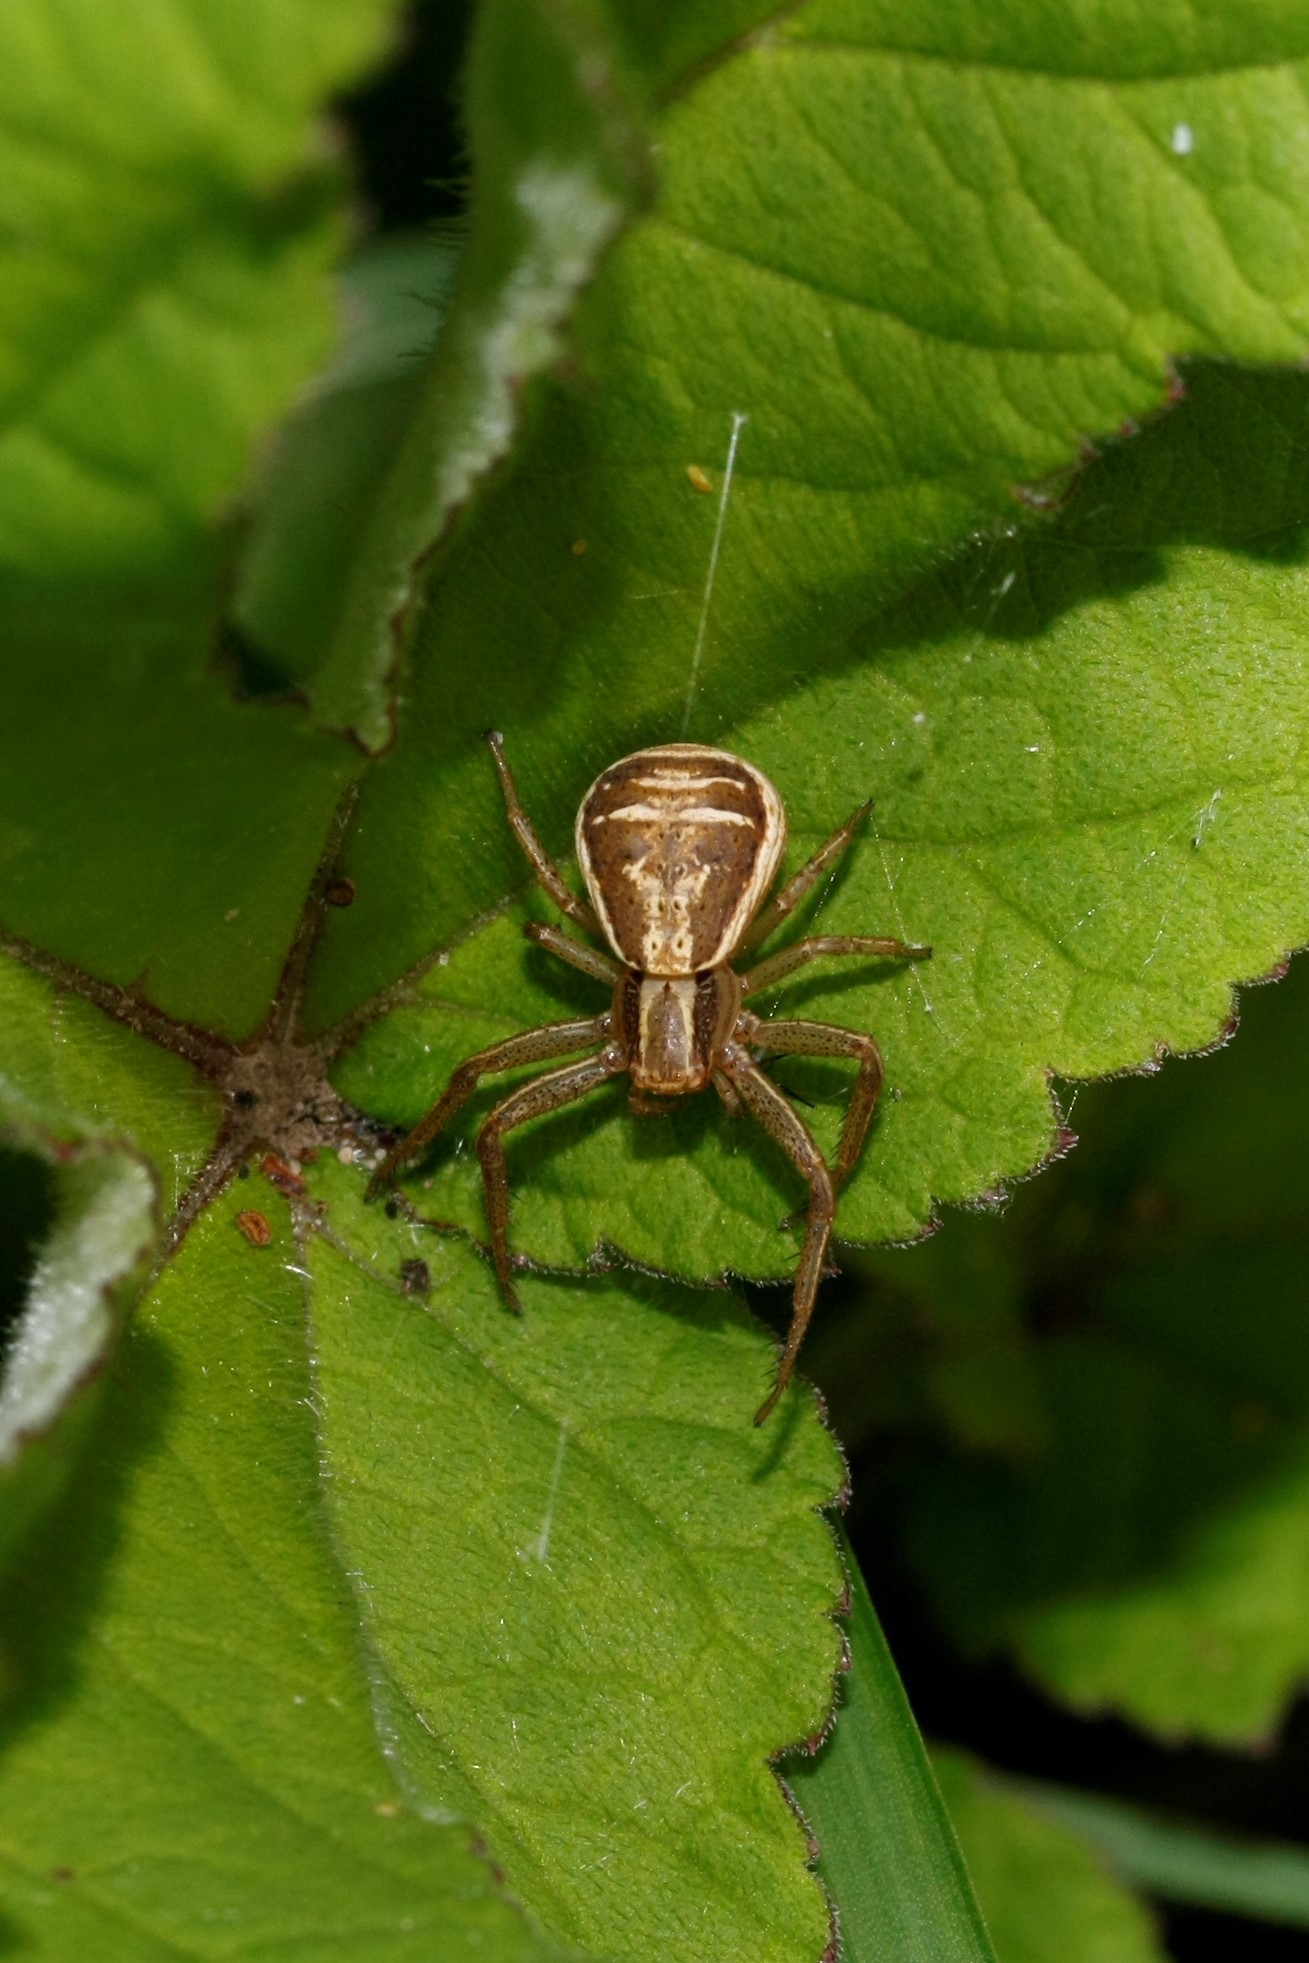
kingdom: Animalia
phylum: Arthropoda
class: Arachnida
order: Araneae
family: Thomisidae
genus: Xysticus
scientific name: Xysticus ulmi
